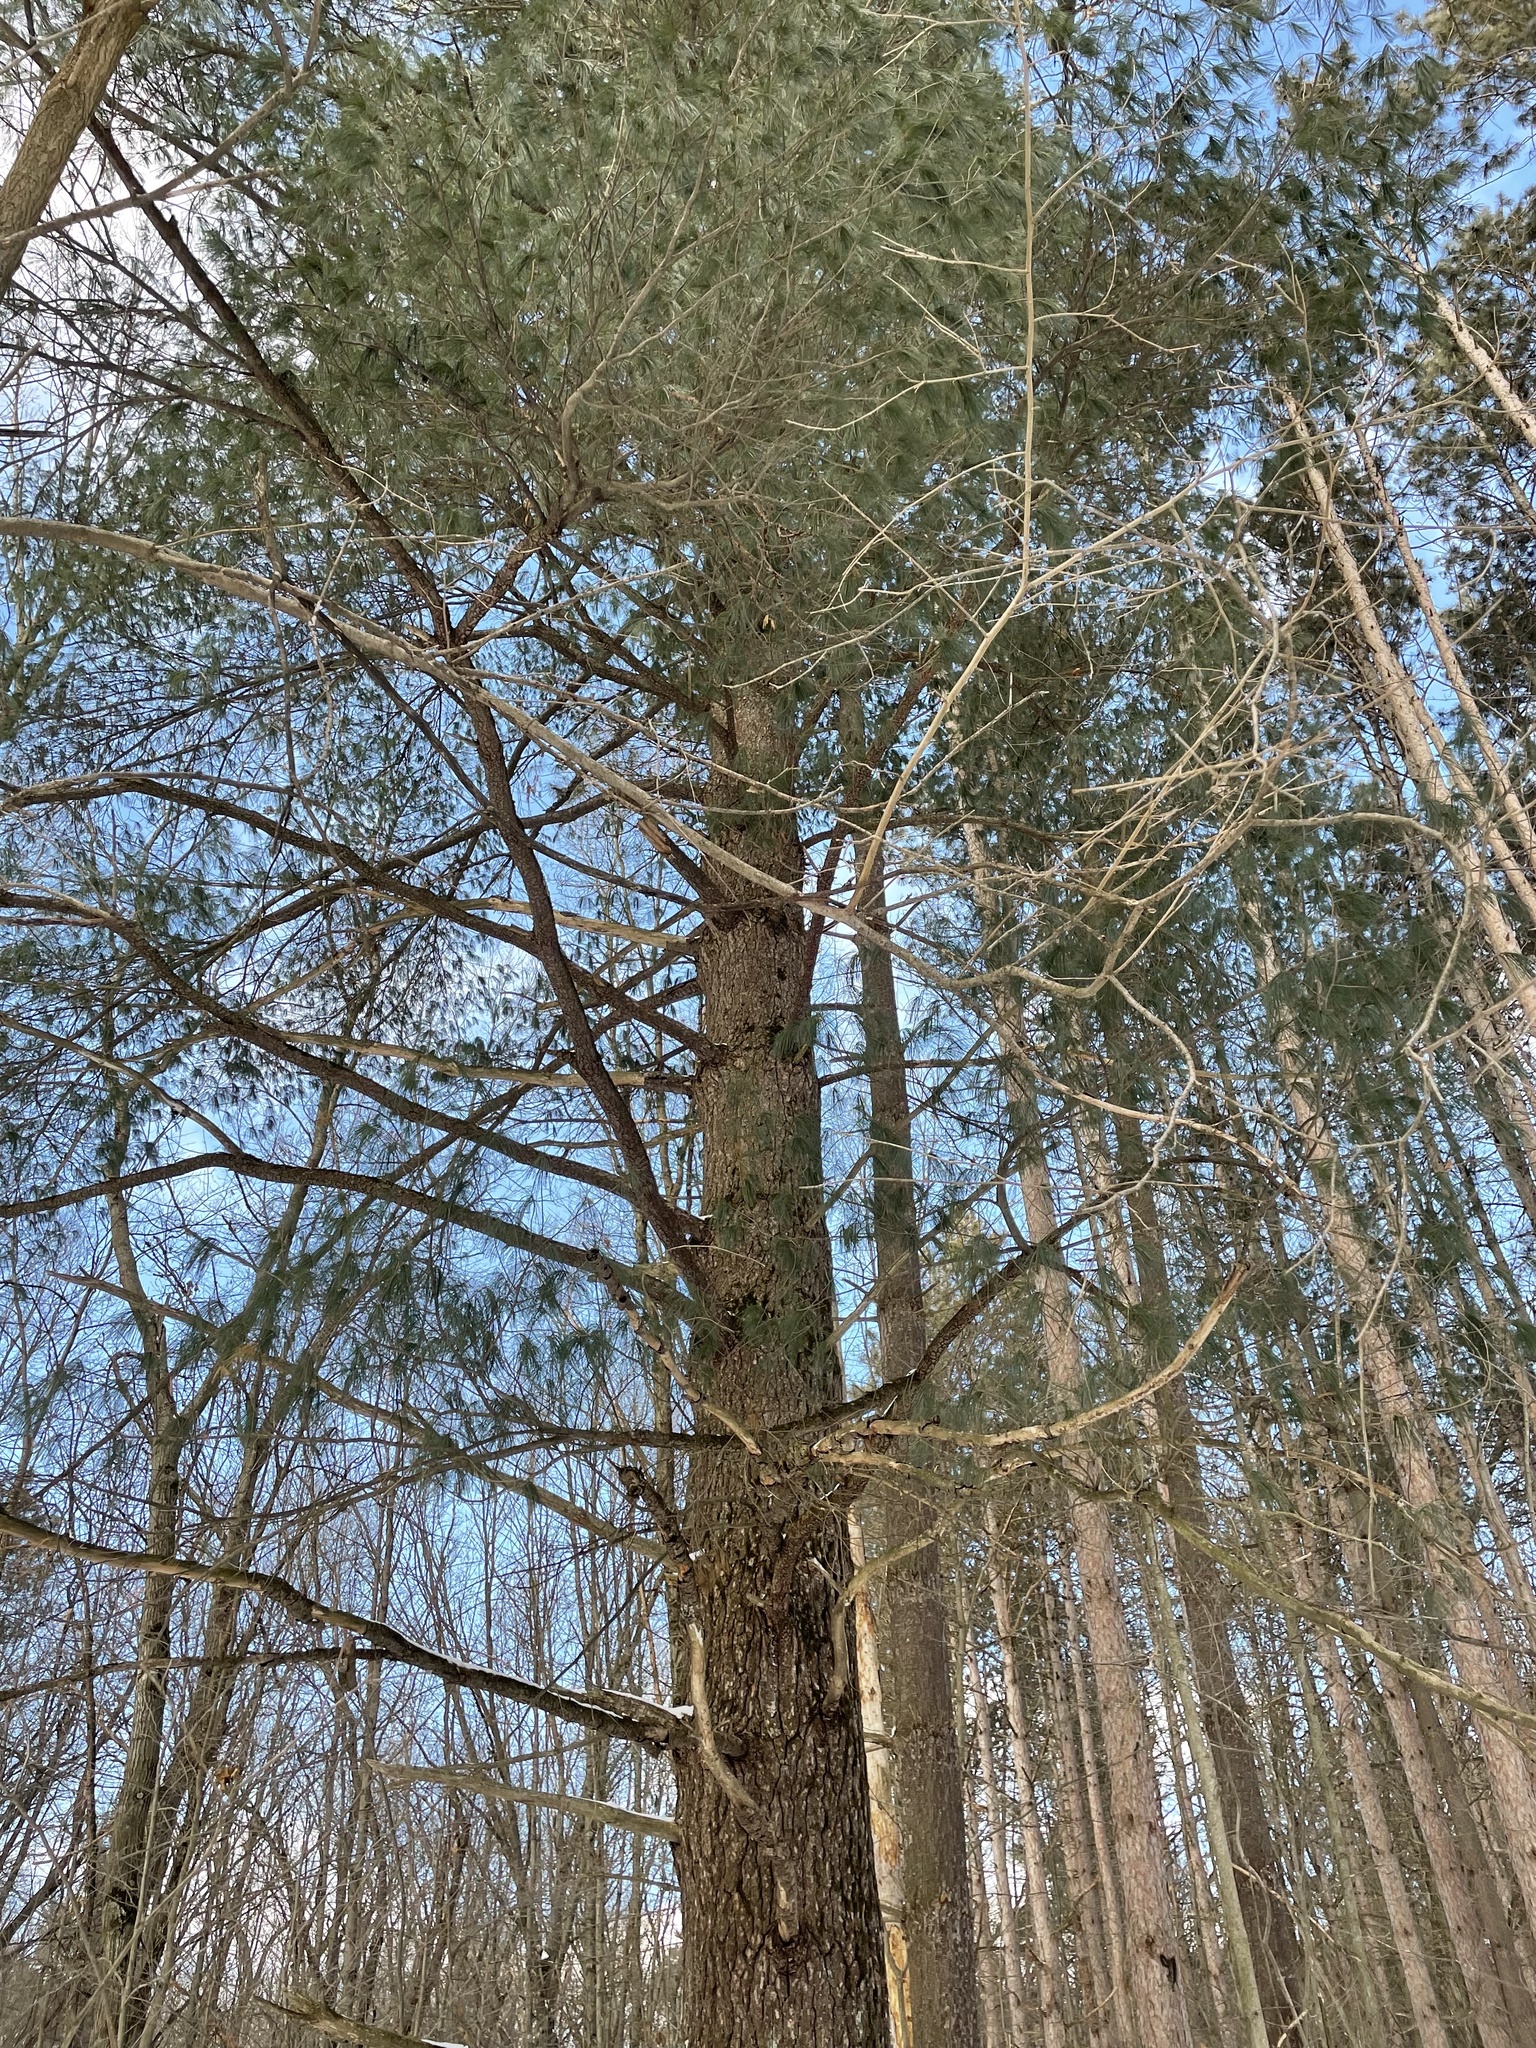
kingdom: Plantae
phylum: Tracheophyta
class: Pinopsida
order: Pinales
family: Pinaceae
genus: Pinus
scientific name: Pinus strobus
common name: Weymouth pine
